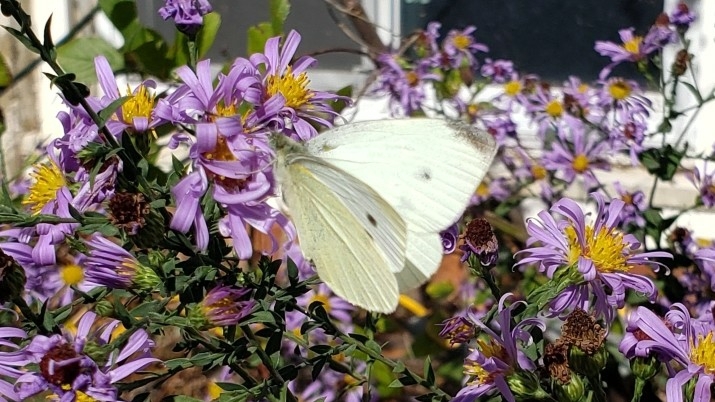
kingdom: Animalia
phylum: Arthropoda
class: Insecta
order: Lepidoptera
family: Pieridae
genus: Pieris
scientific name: Pieris rapae
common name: Small white
